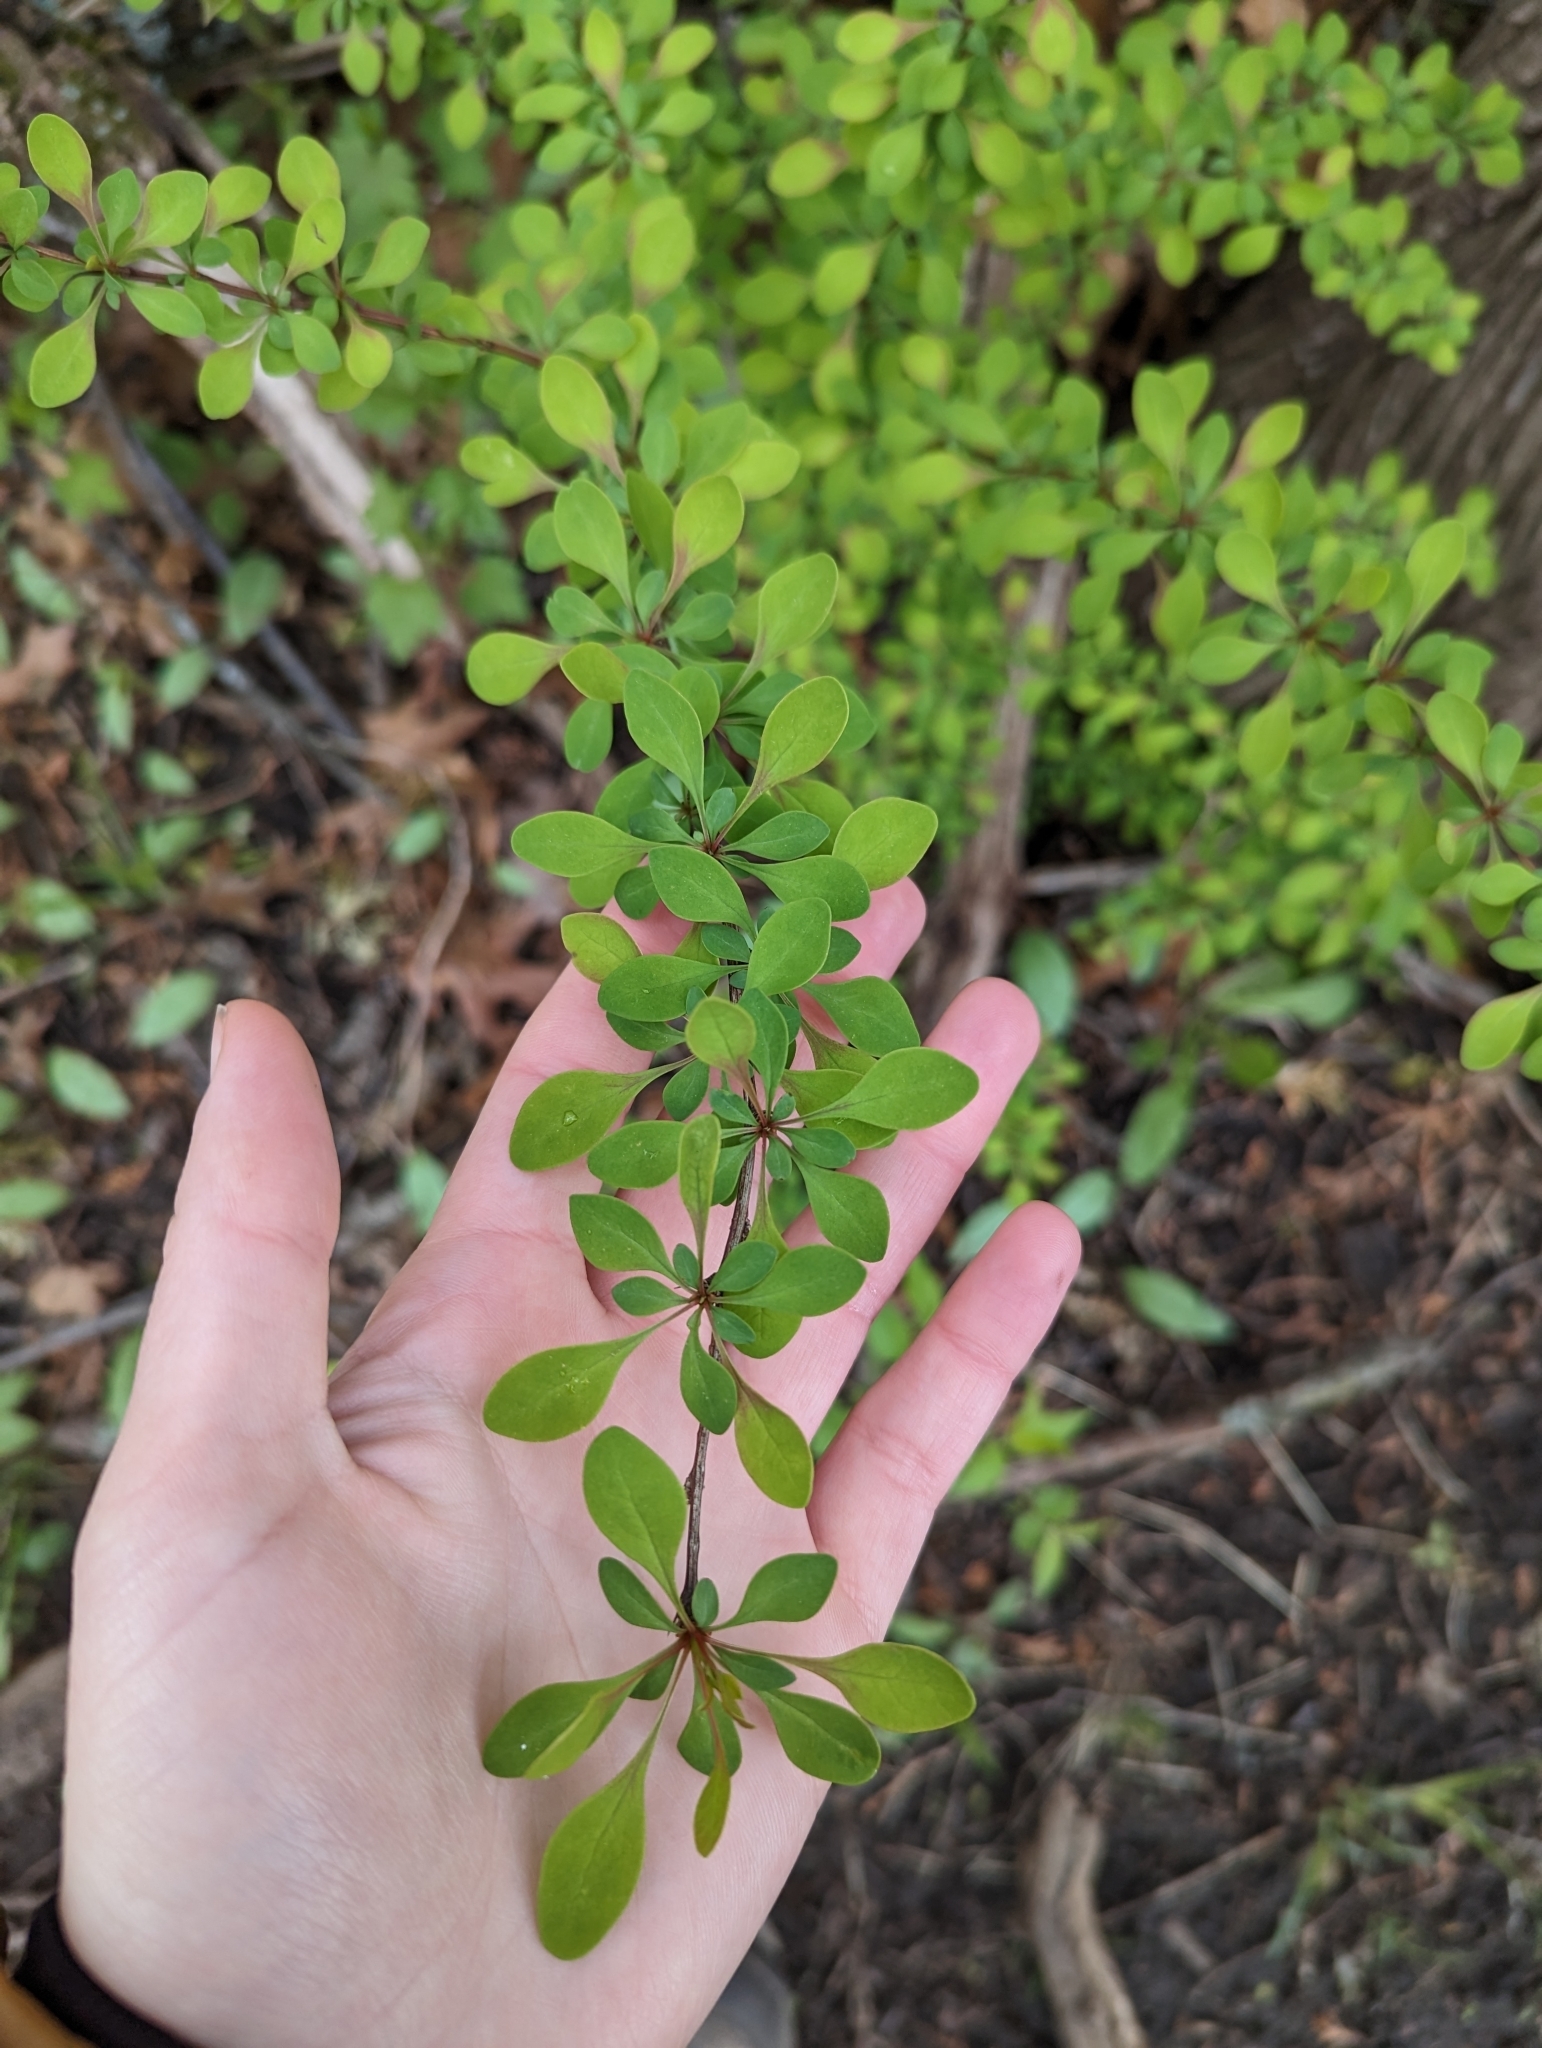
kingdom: Plantae
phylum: Tracheophyta
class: Magnoliopsida
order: Ranunculales
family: Berberidaceae
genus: Berberis
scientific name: Berberis thunbergii
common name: Japanese barberry
